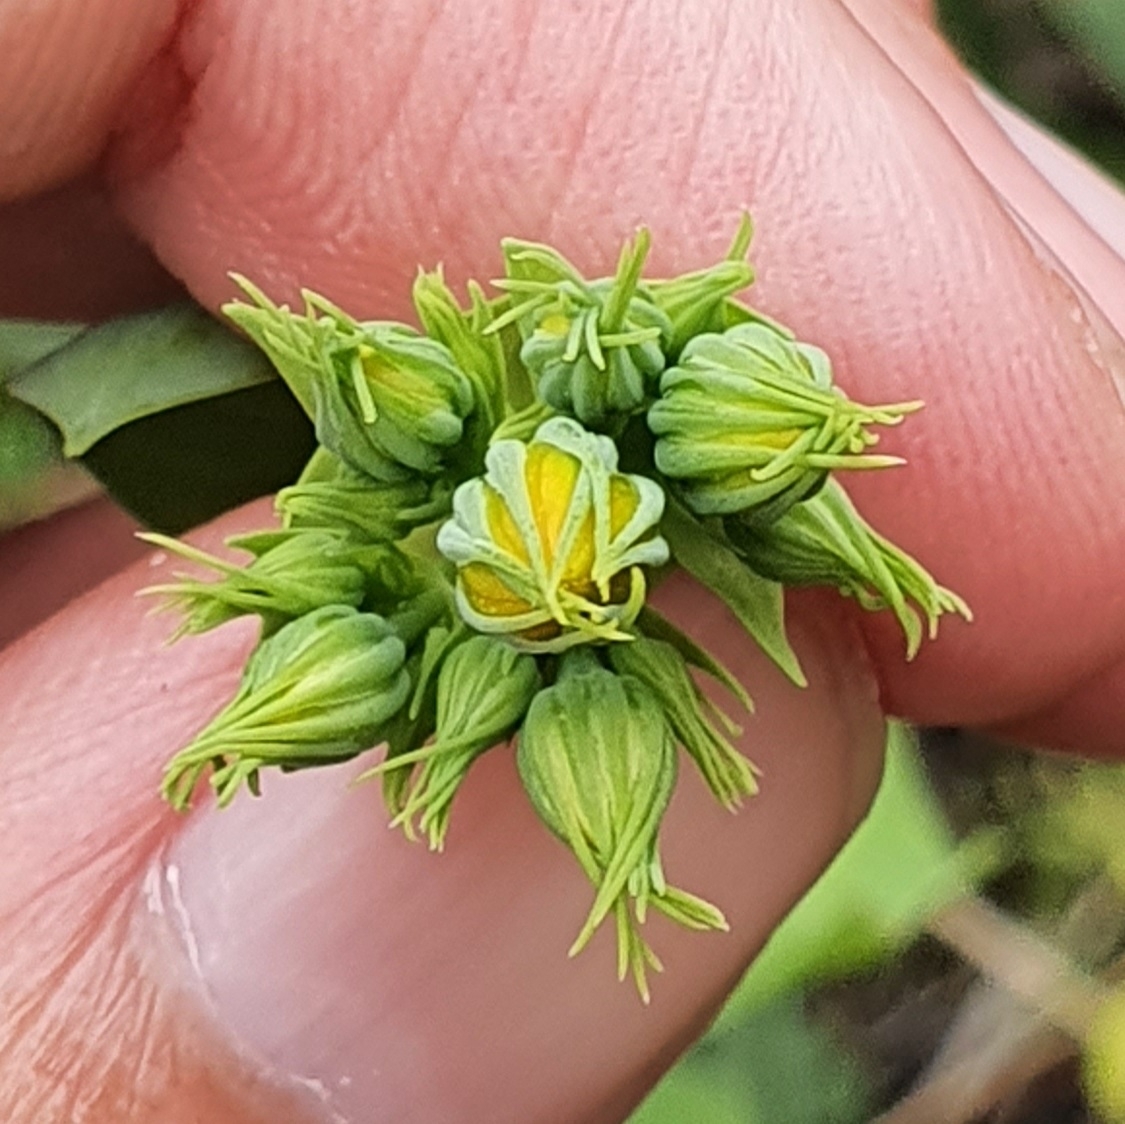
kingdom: Plantae
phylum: Tracheophyta
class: Magnoliopsida
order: Gentianales
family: Gentianaceae
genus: Blackstonia
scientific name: Blackstonia grandiflora
